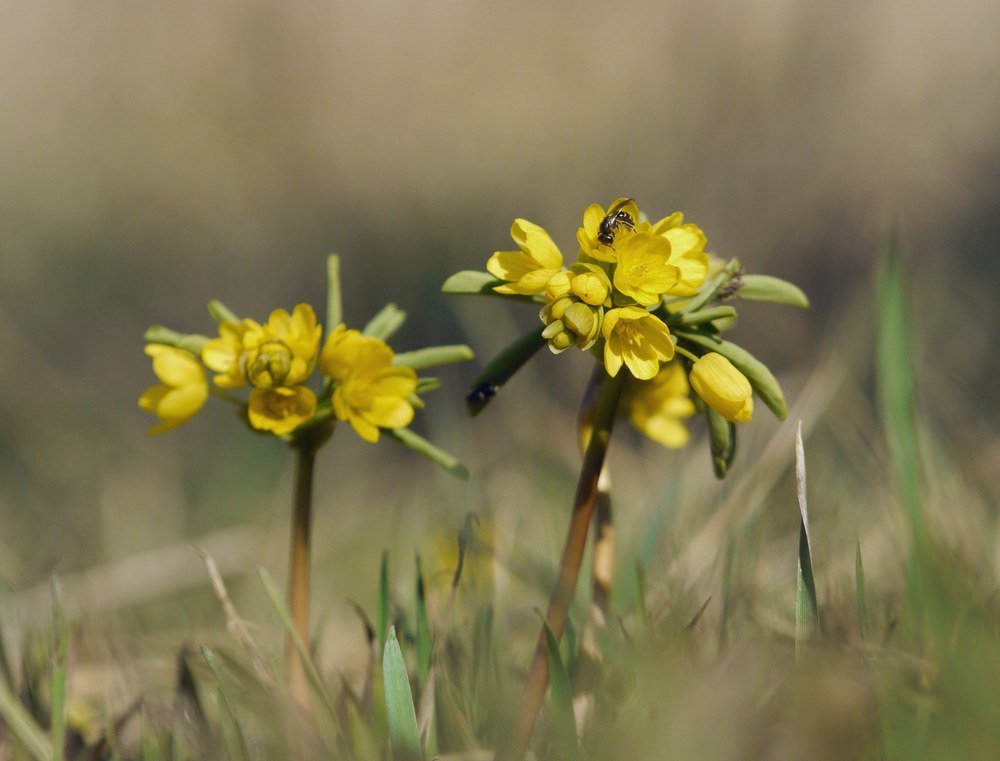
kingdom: Plantae
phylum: Tracheophyta
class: Magnoliopsida
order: Ranunculales
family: Berberidaceae
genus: Gymnospermium
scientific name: Gymnospermium odessanum
